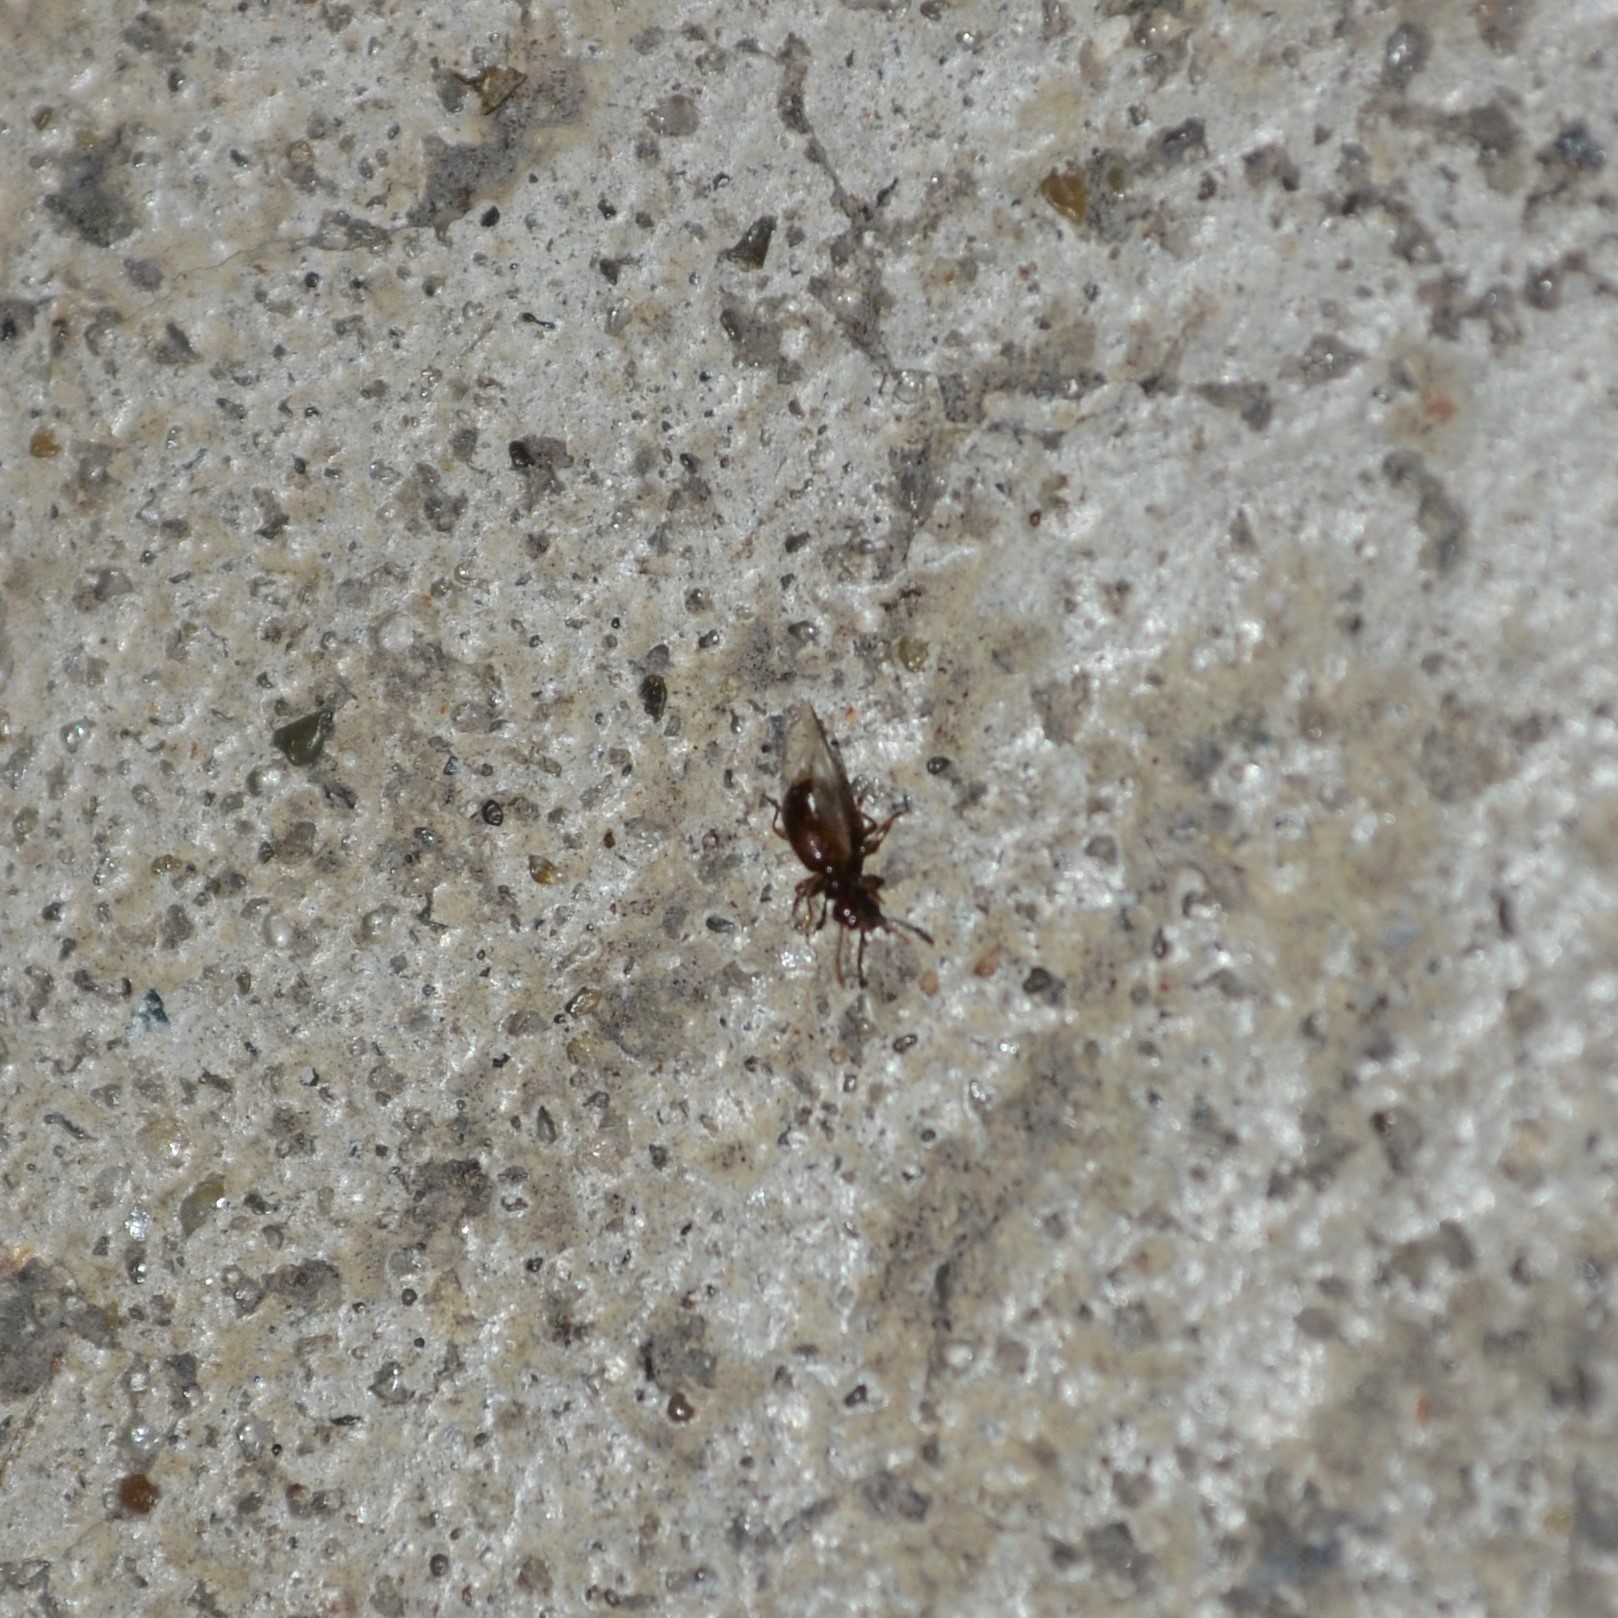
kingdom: Animalia
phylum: Arthropoda
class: Insecta
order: Coleoptera
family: Anthicidae
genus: Acanthinus
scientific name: Acanthinus
